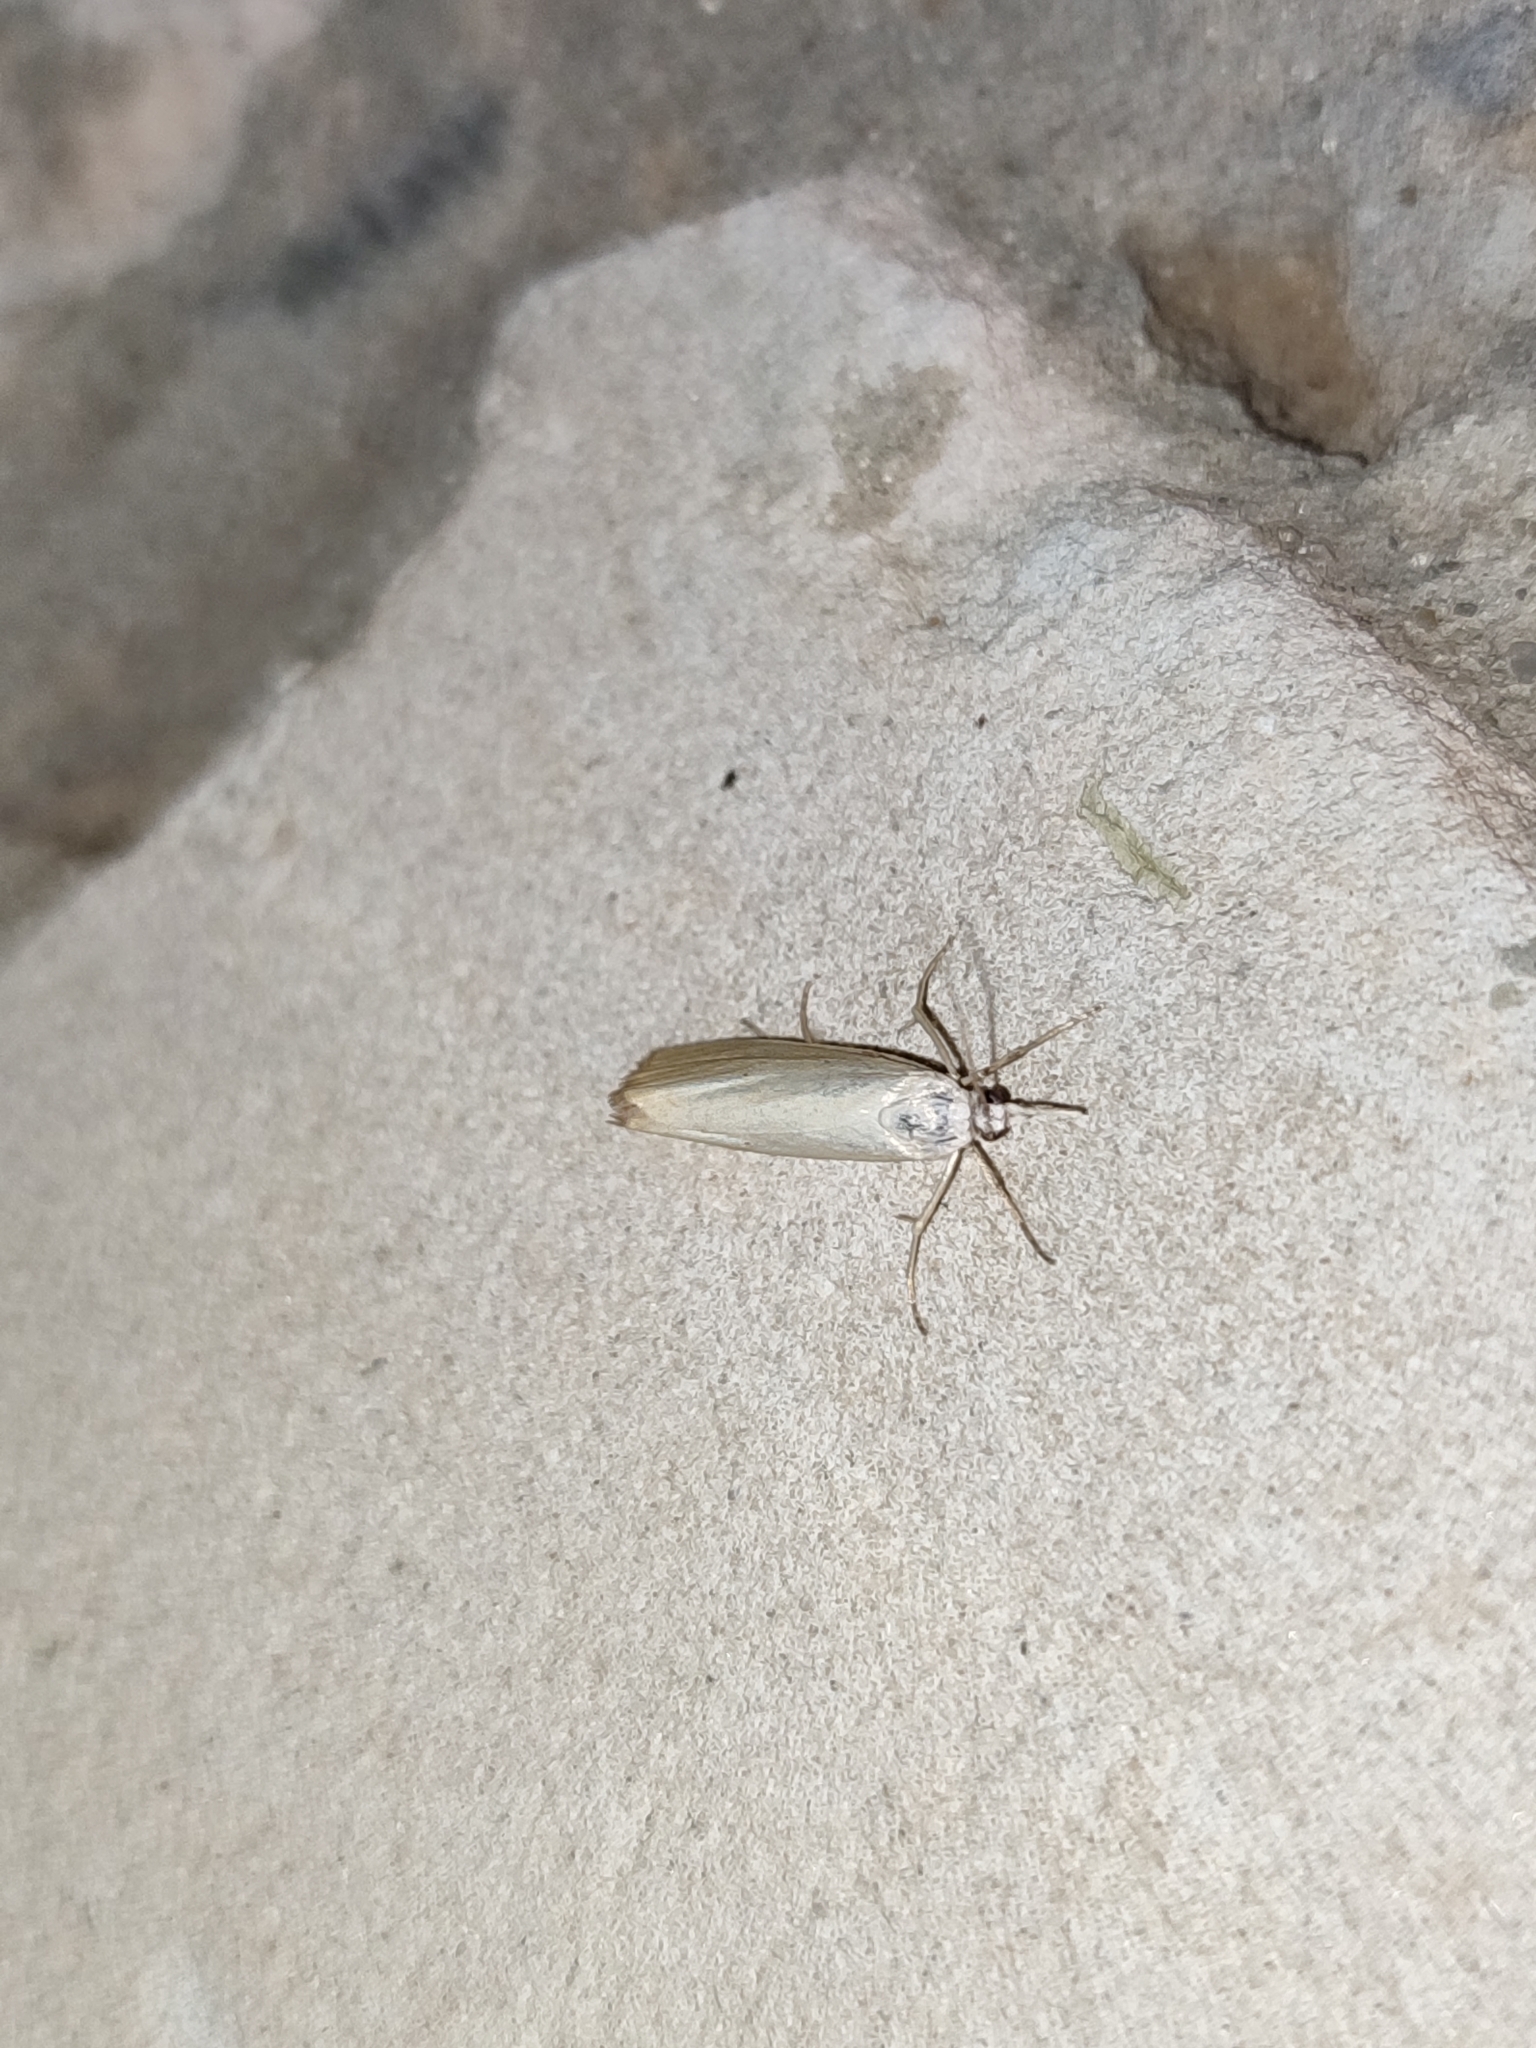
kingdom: Animalia
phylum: Arthropoda
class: Insecta
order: Lepidoptera
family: Crambidae
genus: Crambus
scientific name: Crambus perlellus
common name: Yellow satin veneer
